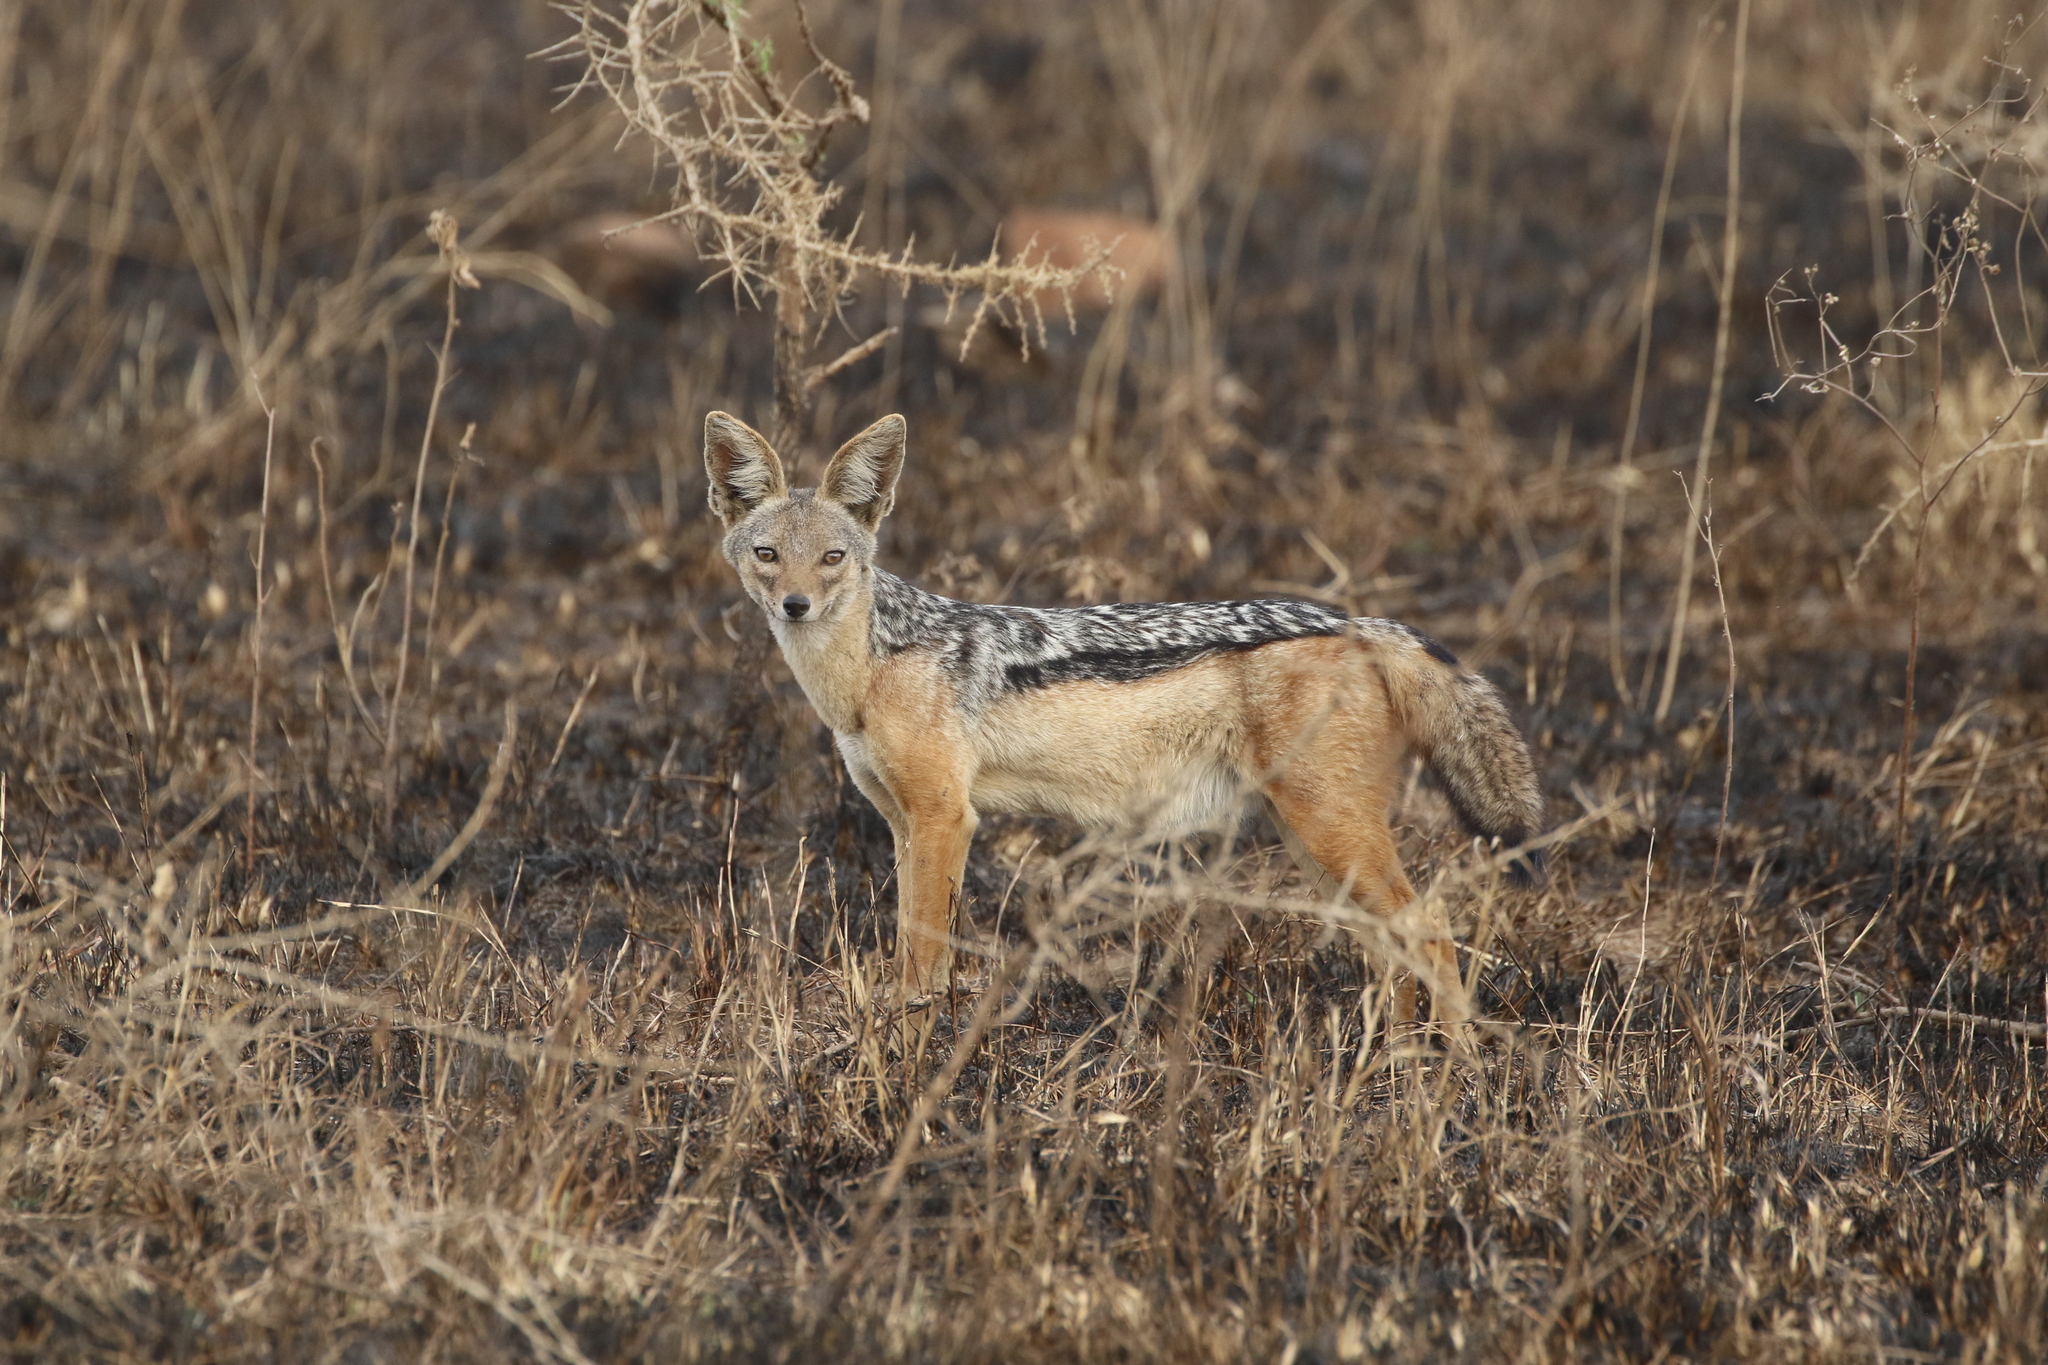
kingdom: Animalia
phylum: Chordata
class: Mammalia
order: Carnivora
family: Canidae
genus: Lupulella
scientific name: Lupulella
